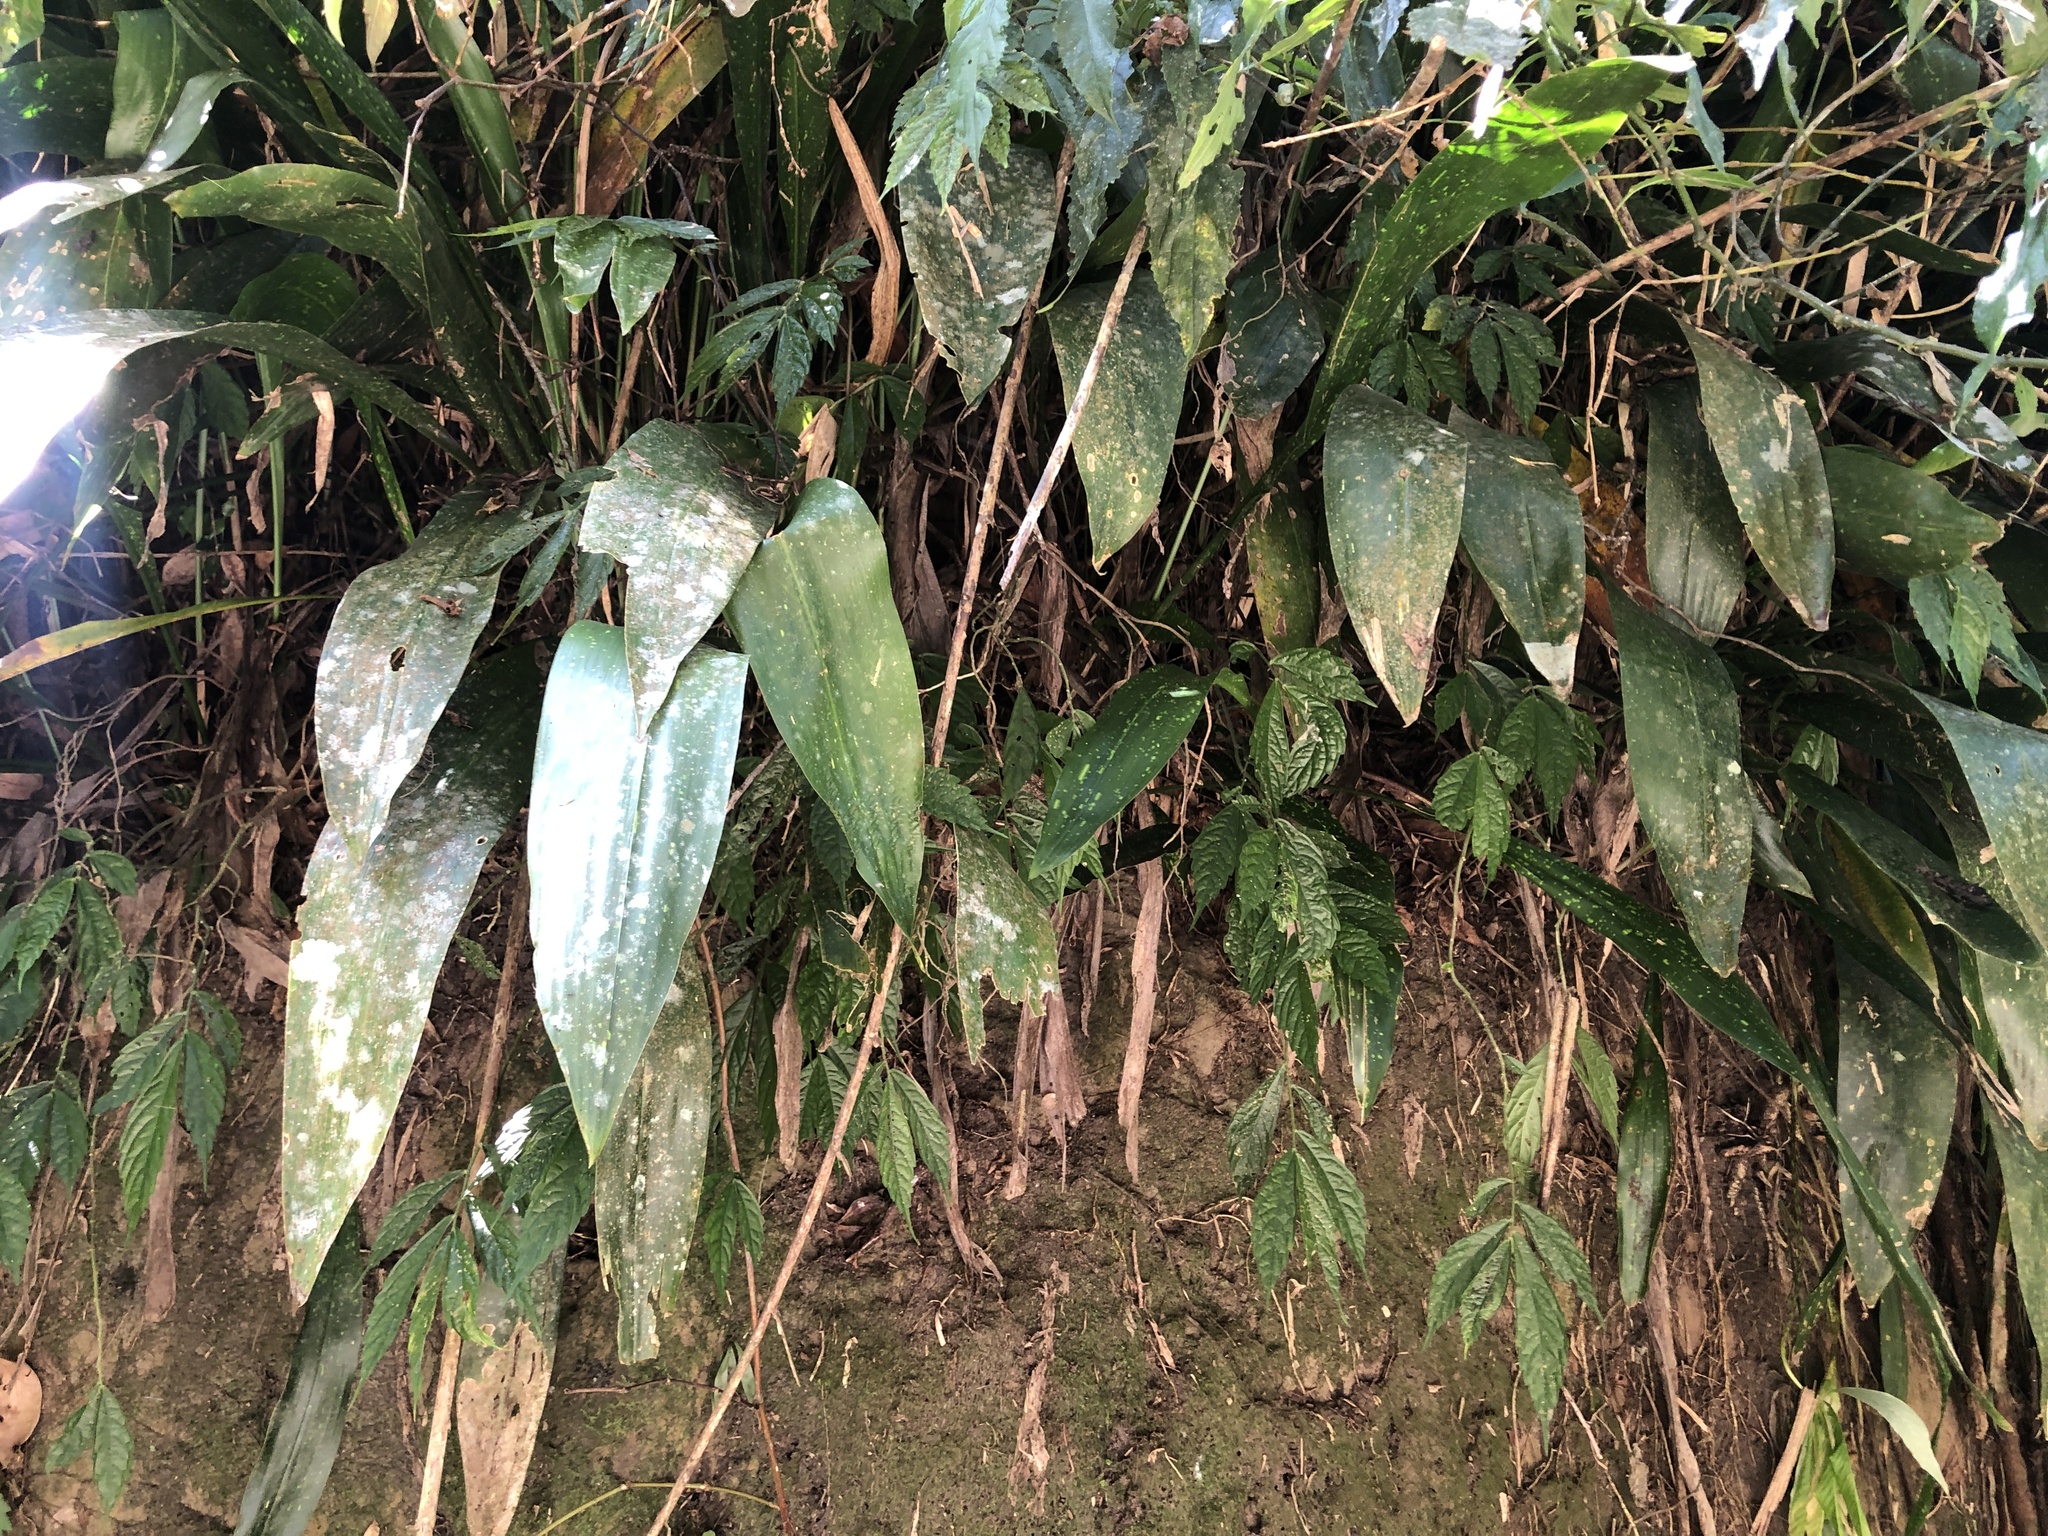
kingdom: Plantae
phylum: Tracheophyta
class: Liliopsida
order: Asparagales
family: Asparagaceae
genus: Aspidistra
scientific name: Aspidistra attenuata
